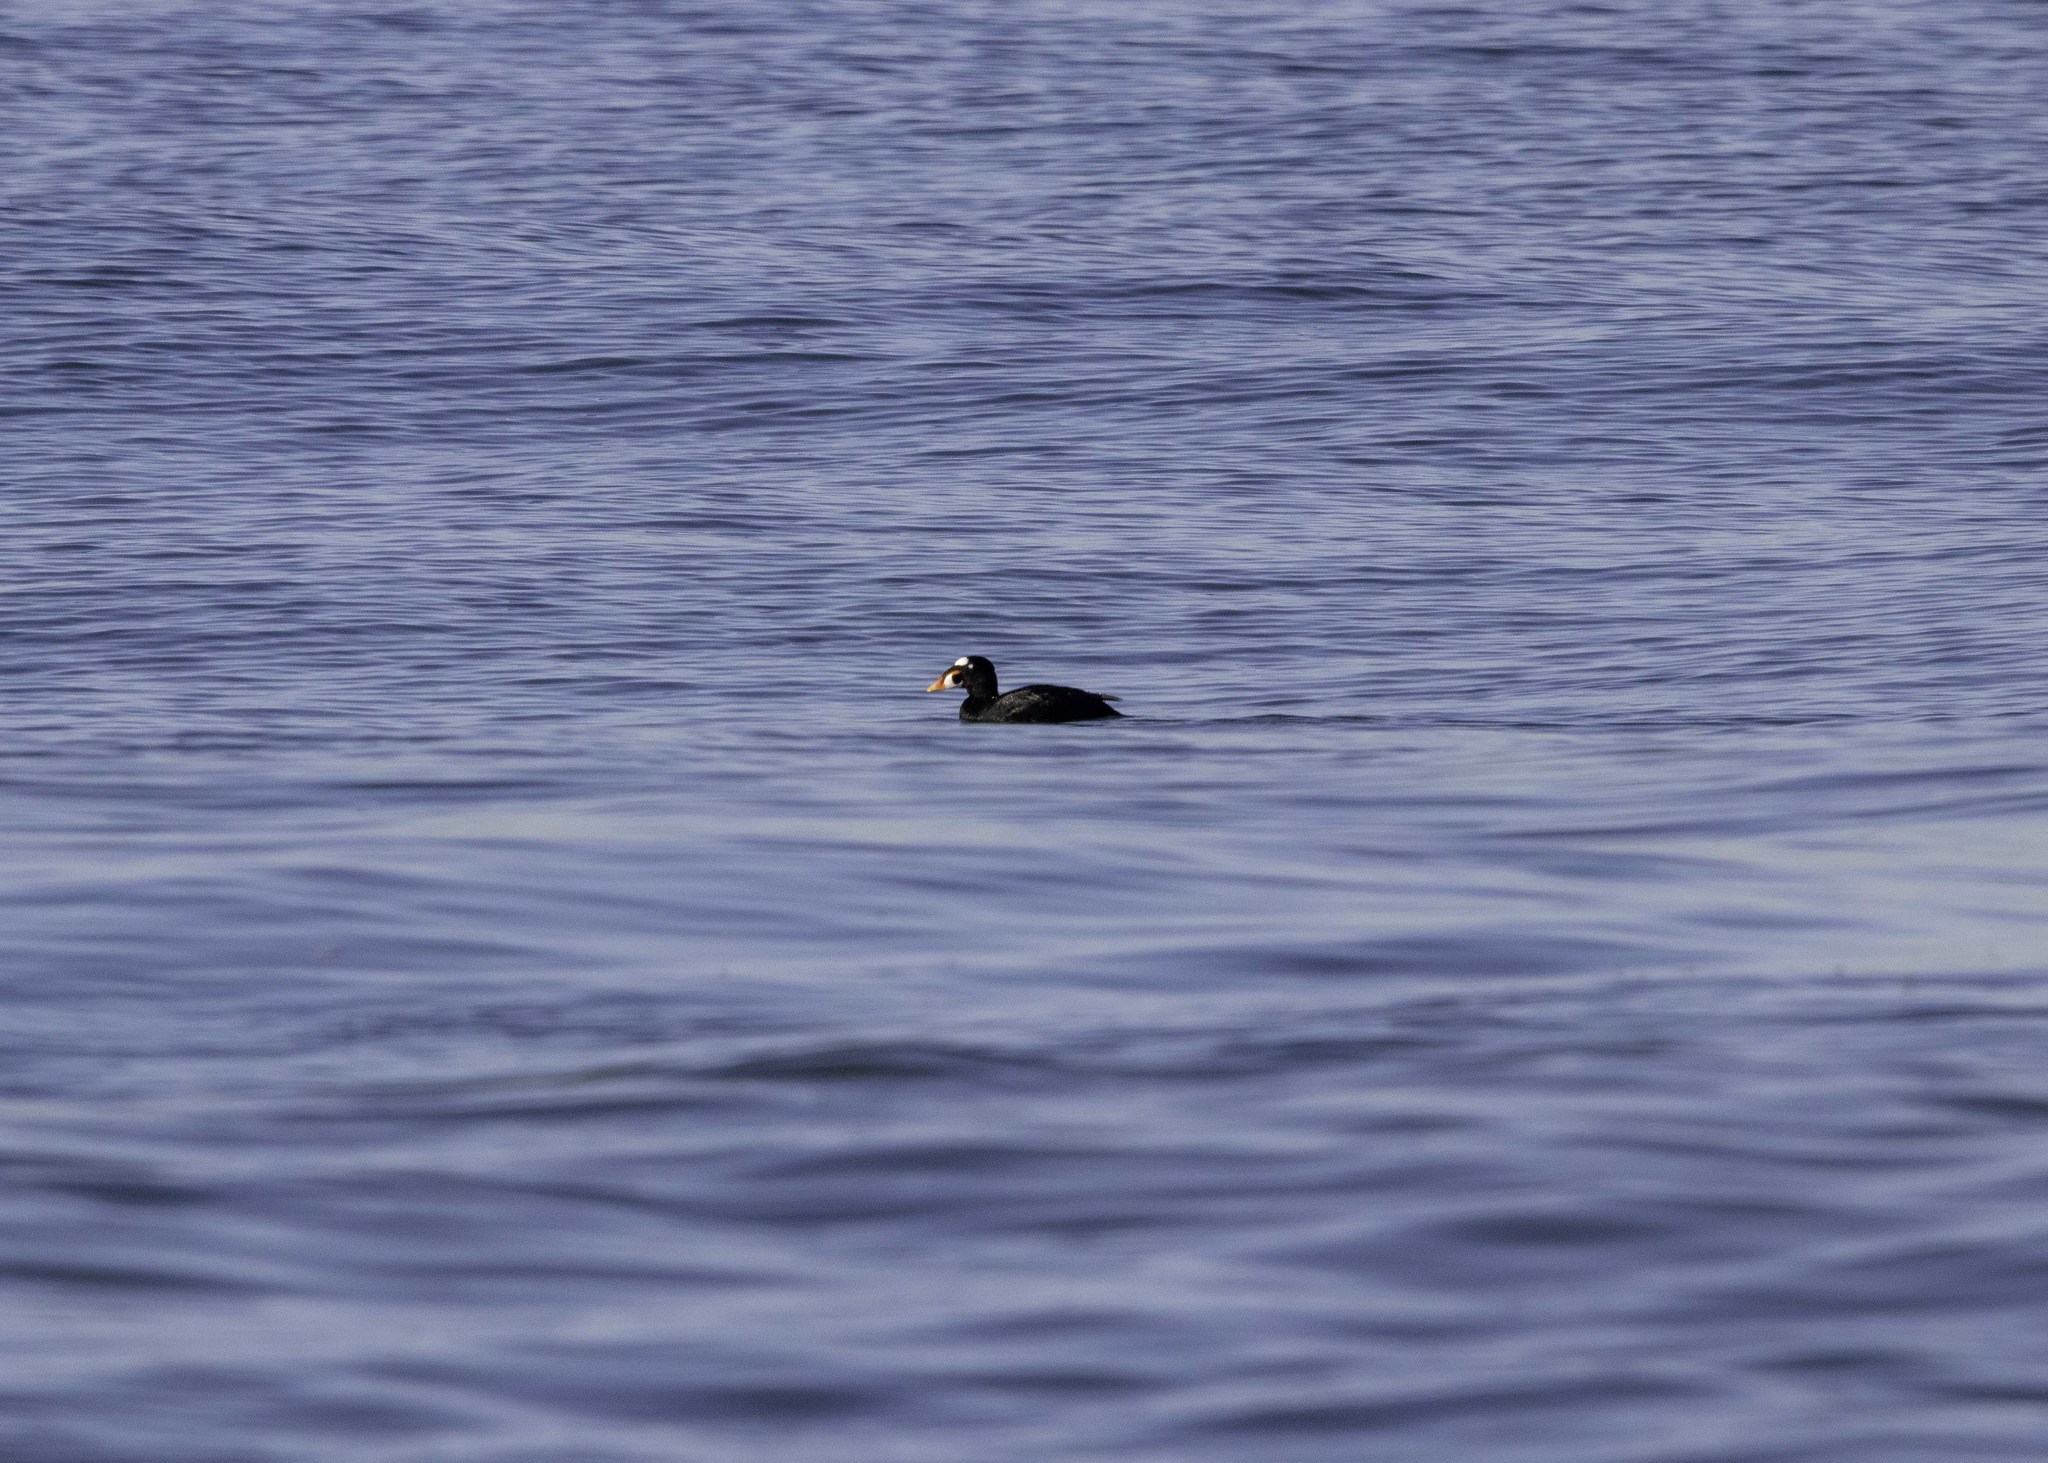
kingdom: Animalia
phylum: Chordata
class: Aves
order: Anseriformes
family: Anatidae
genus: Melanitta
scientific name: Melanitta perspicillata
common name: Surf scoter
